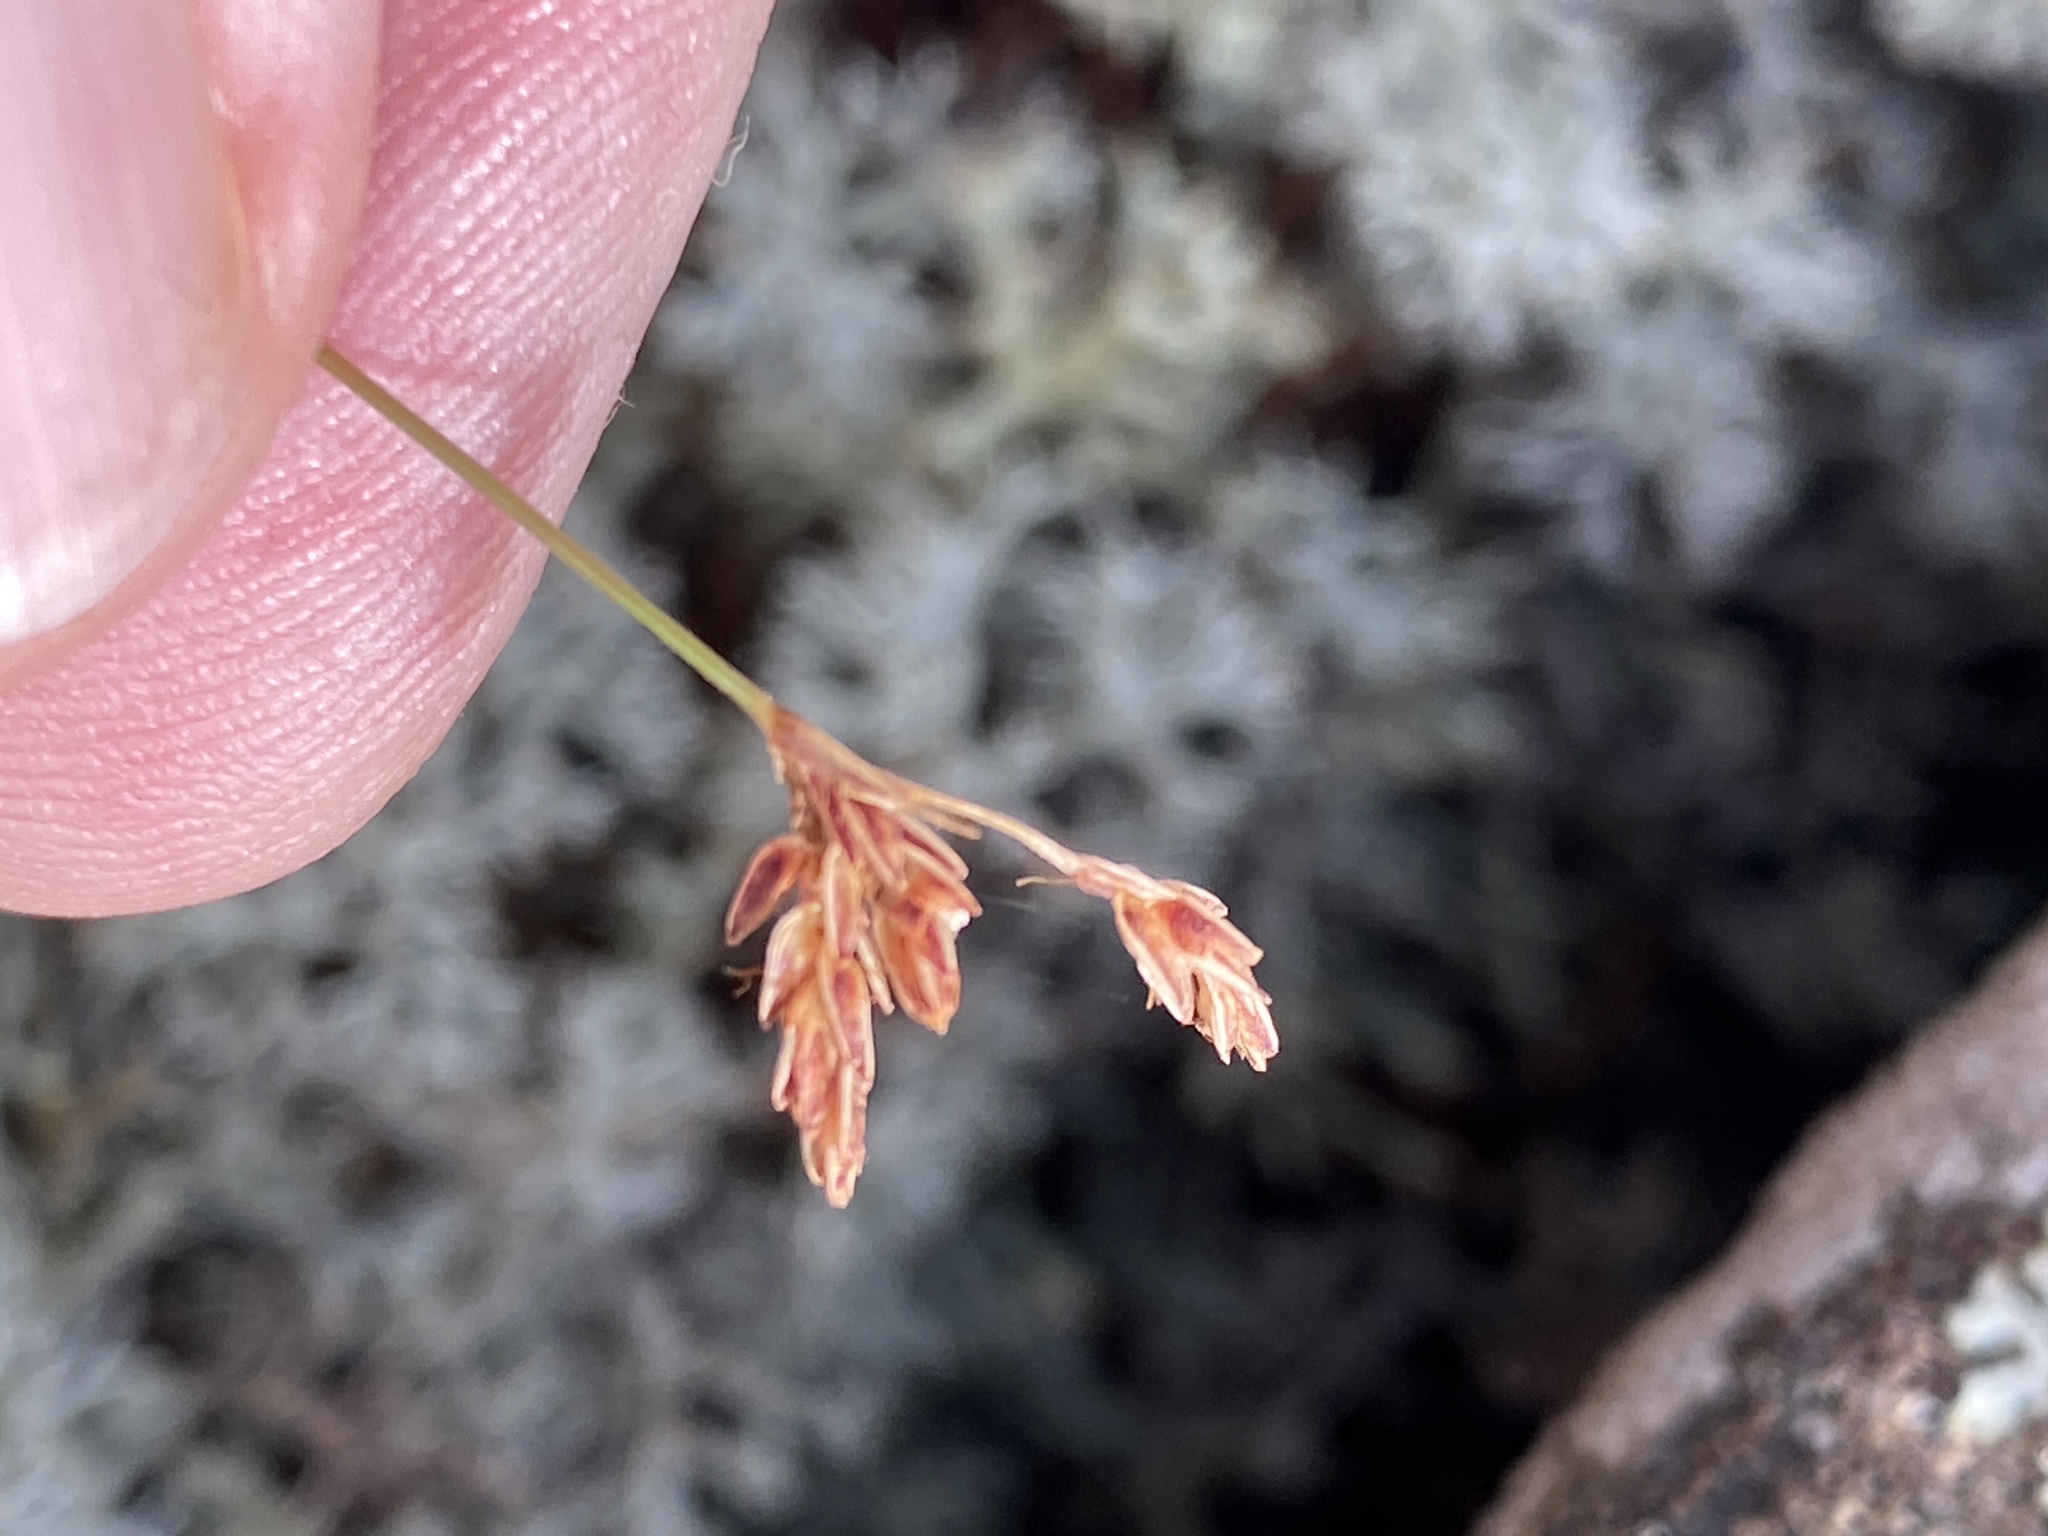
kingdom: Plantae
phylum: Tracheophyta
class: Liliopsida
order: Poales
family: Cyperaceae
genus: Bulbostylis
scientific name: Bulbostylis capillaris
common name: Densetuft hairsedge
